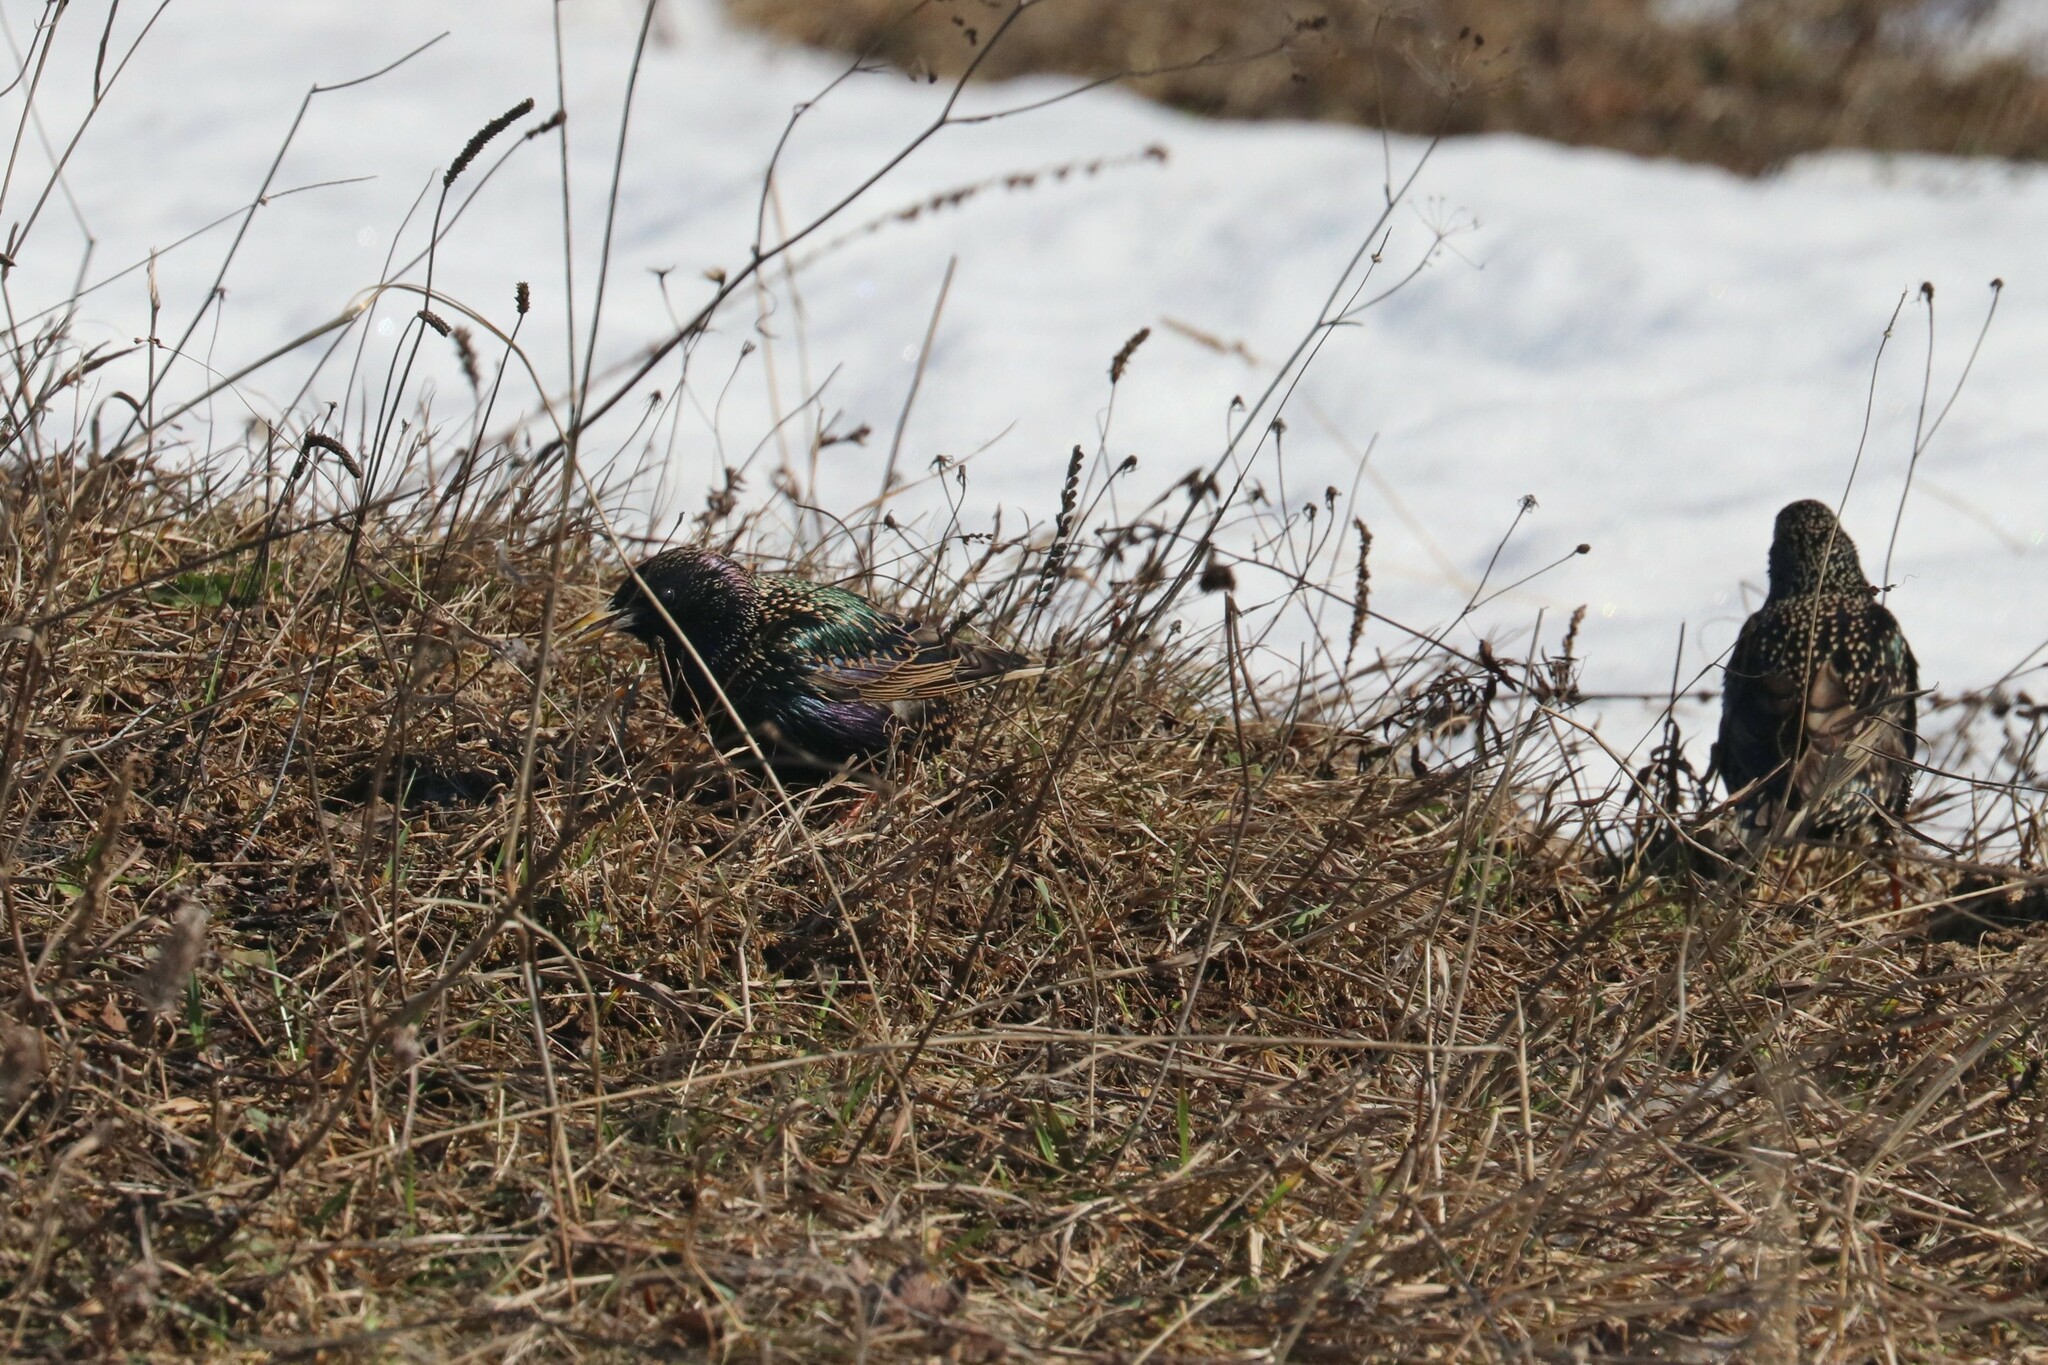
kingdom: Animalia
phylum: Chordata
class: Aves
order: Passeriformes
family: Sturnidae
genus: Sturnus
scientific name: Sturnus vulgaris
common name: Common starling
